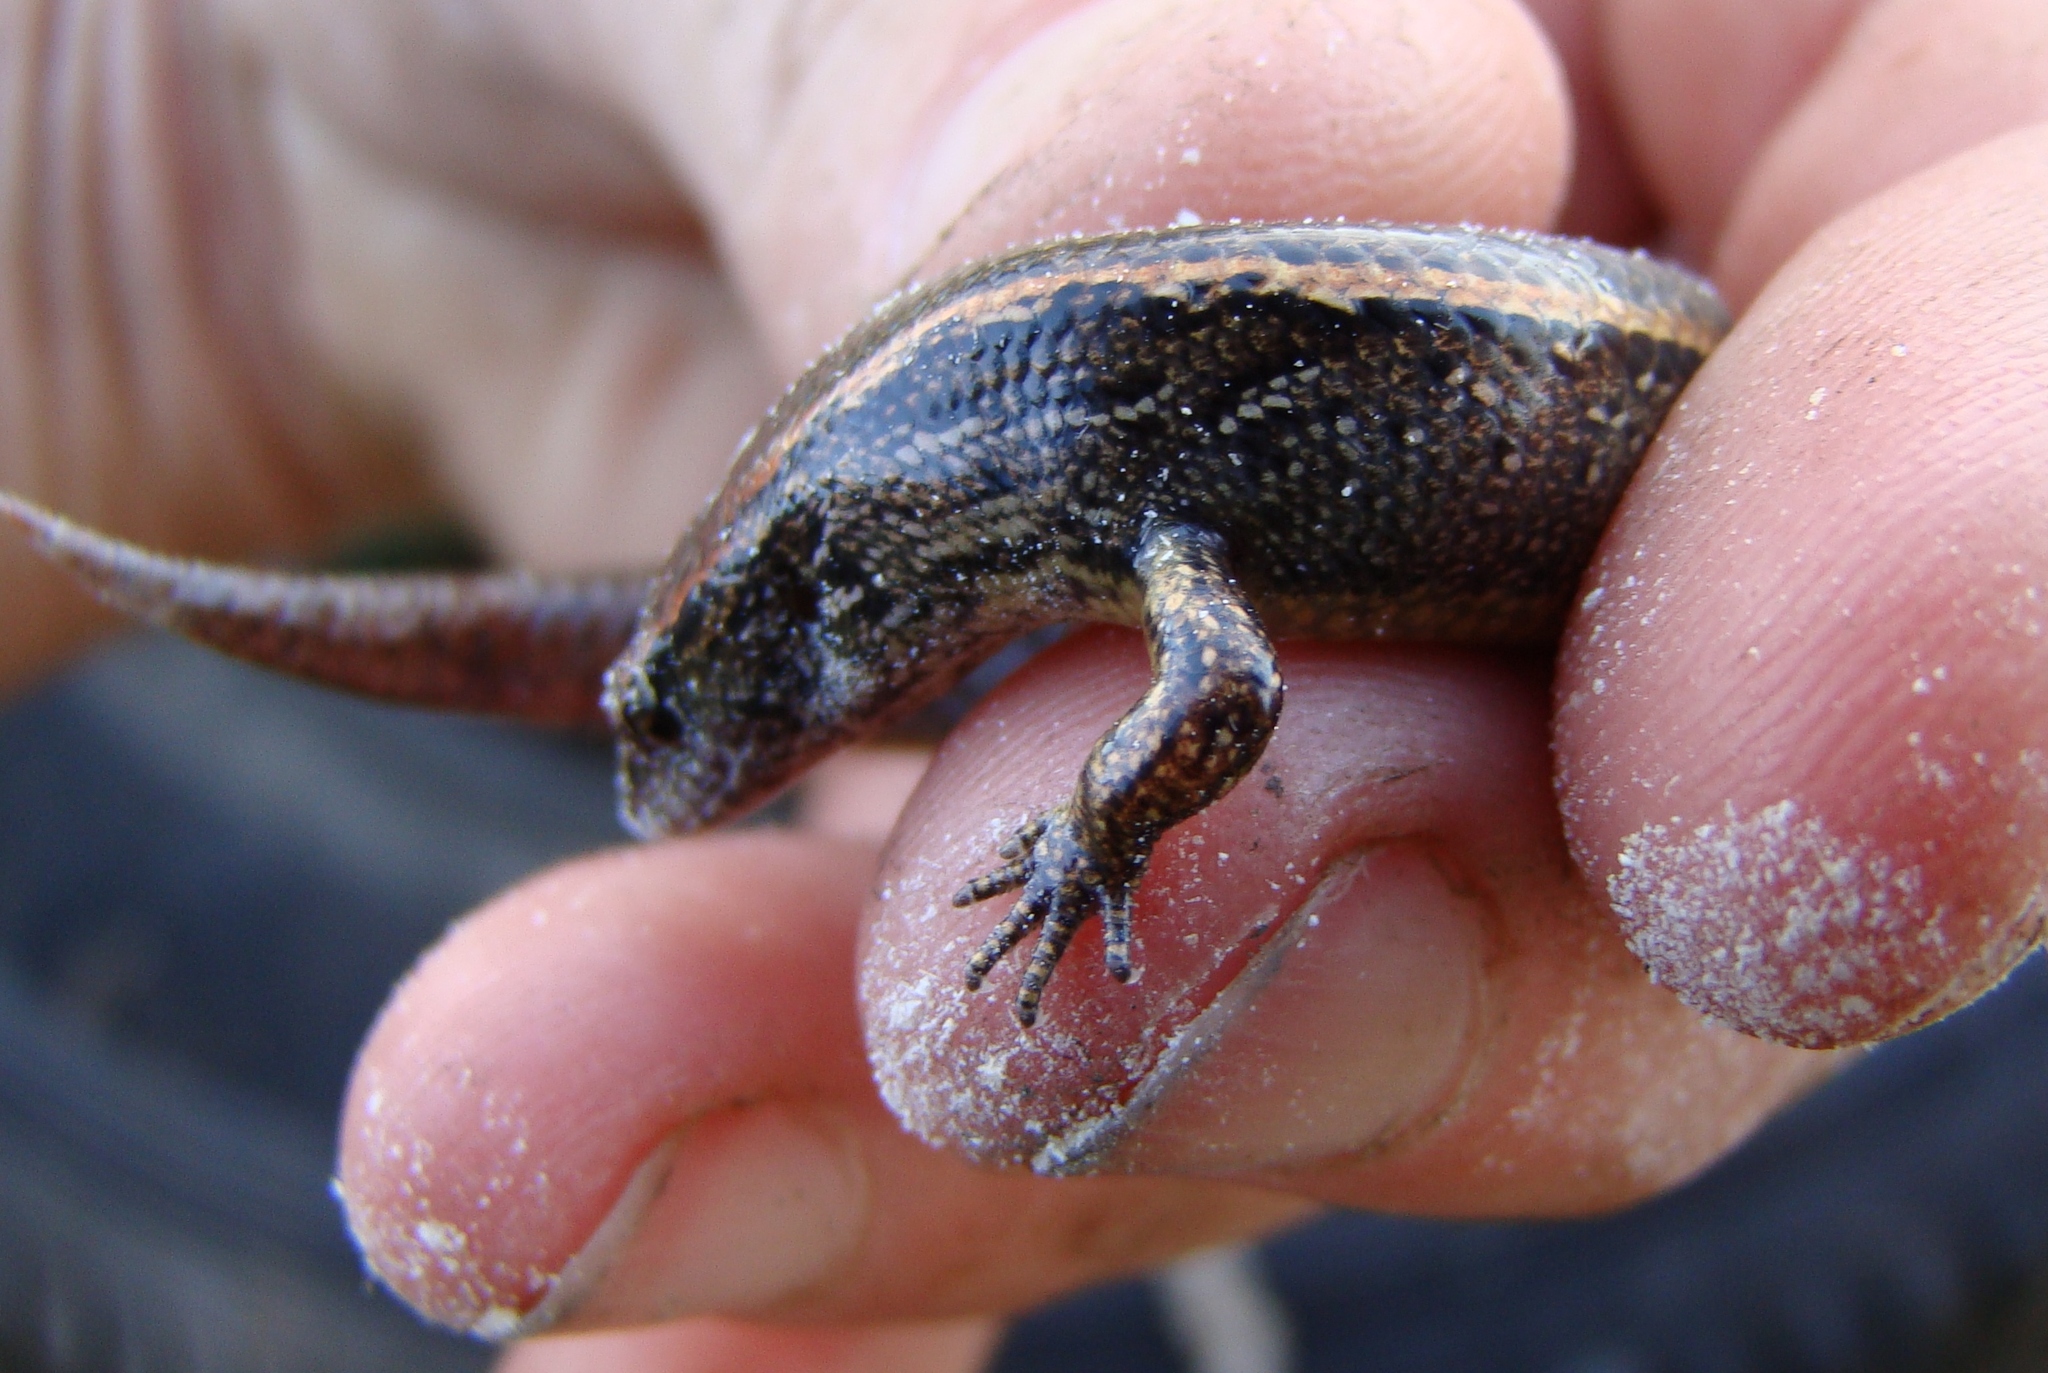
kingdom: Animalia
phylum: Chordata
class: Squamata
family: Scincidae
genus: Oligosoma
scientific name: Oligosoma aeneum
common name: Copper skink
